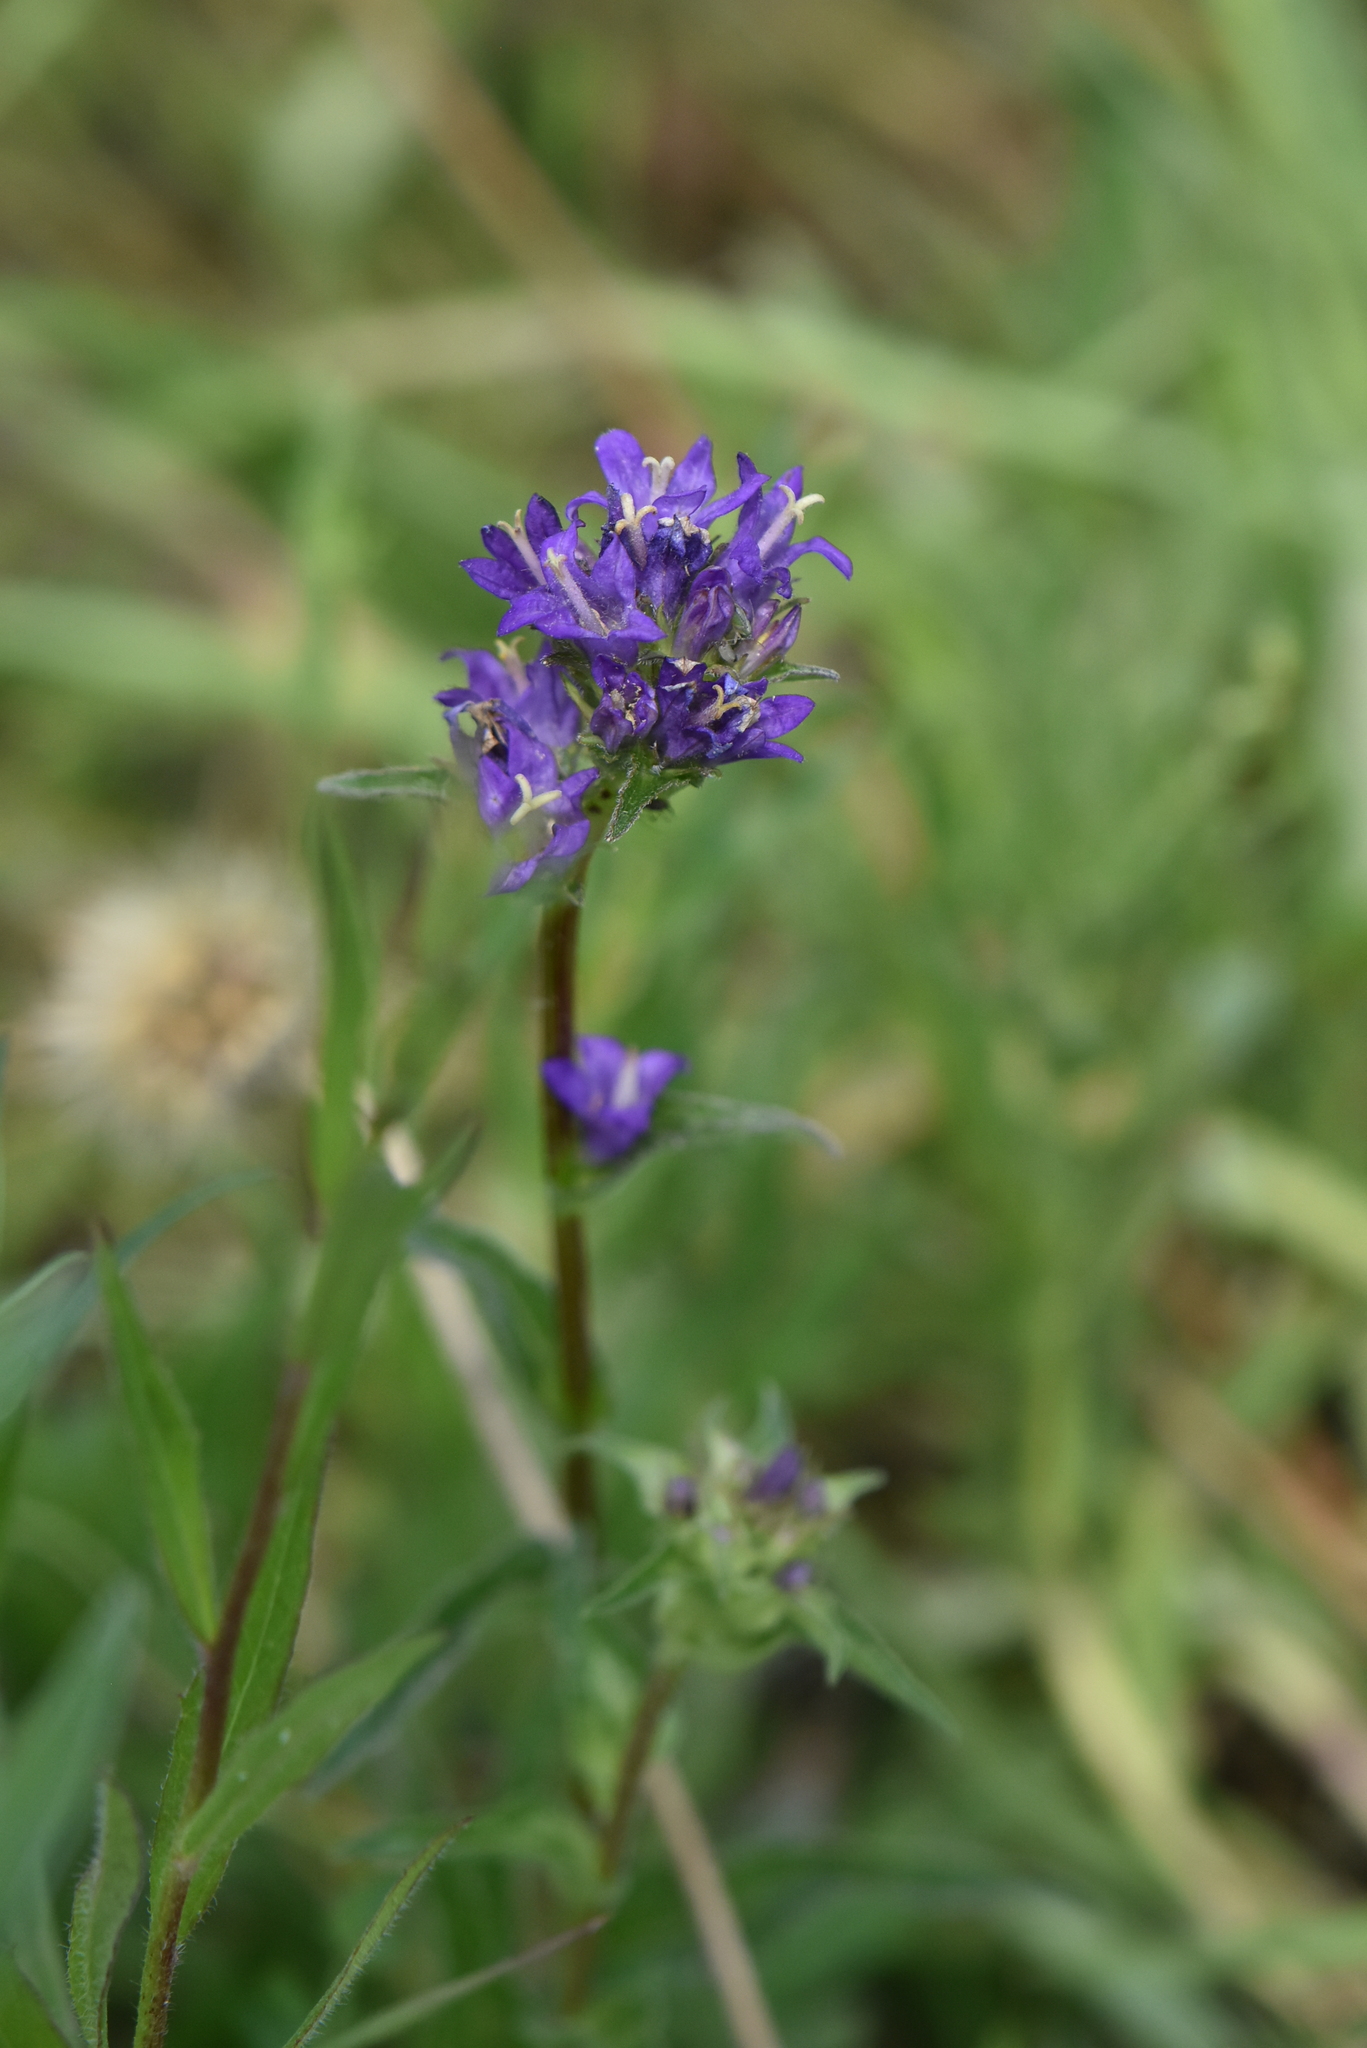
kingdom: Plantae
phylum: Tracheophyta
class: Magnoliopsida
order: Asterales
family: Campanulaceae
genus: Campanula
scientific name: Campanula glomerata
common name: Clustered bellflower
